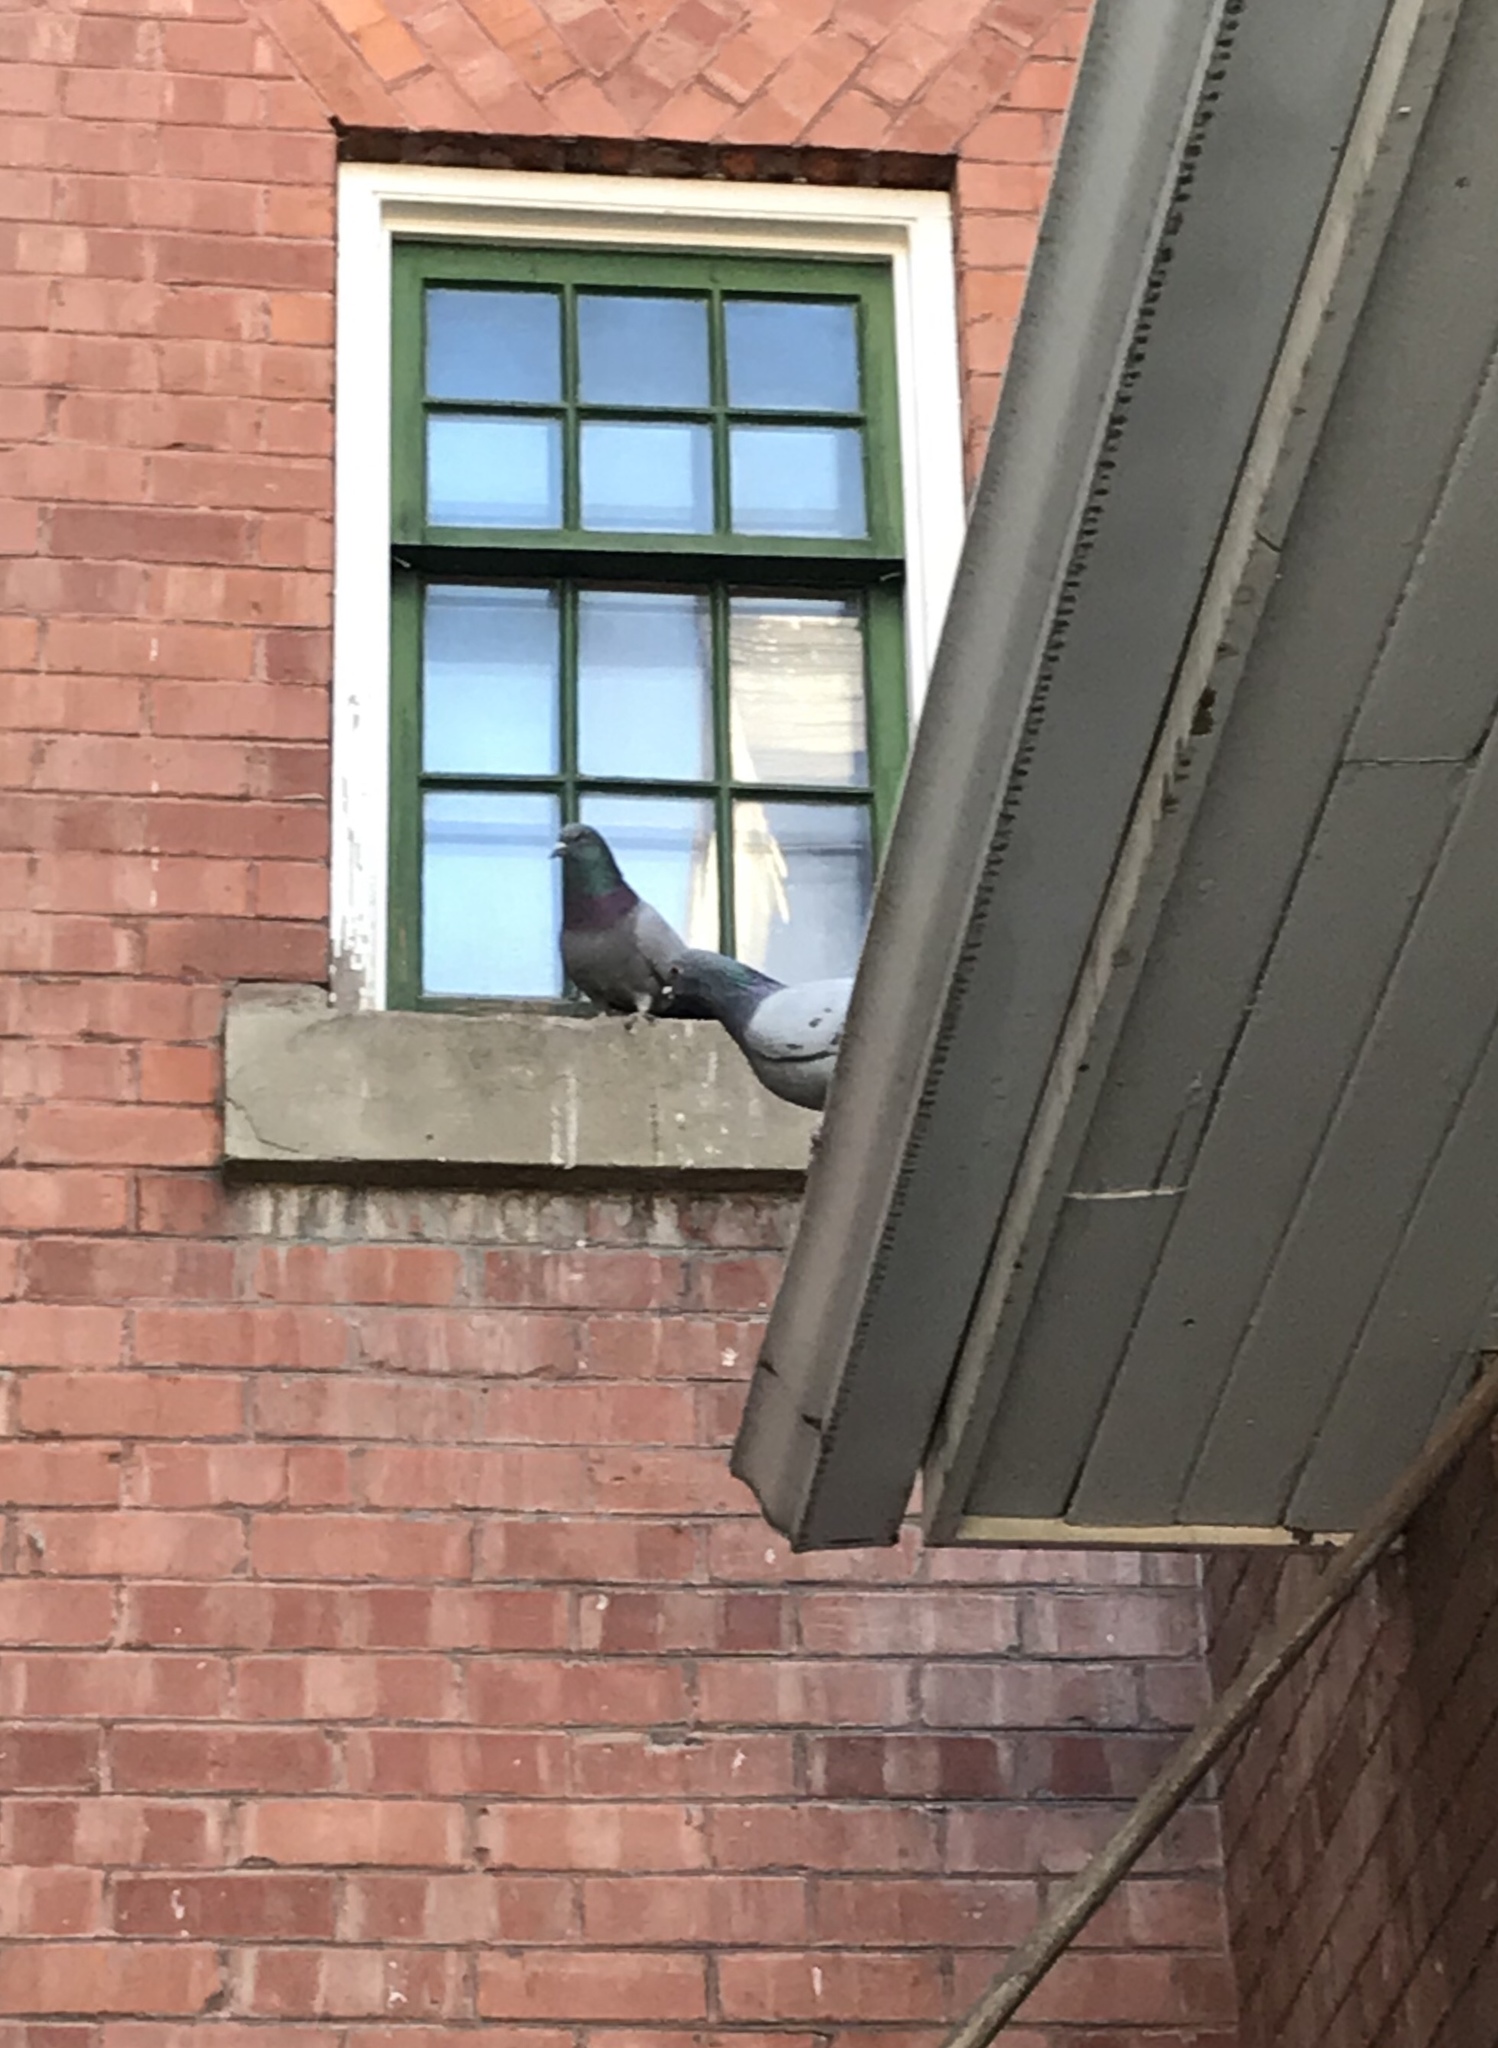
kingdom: Animalia
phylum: Chordata
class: Aves
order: Columbiformes
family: Columbidae
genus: Columba
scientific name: Columba livia
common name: Rock pigeon
